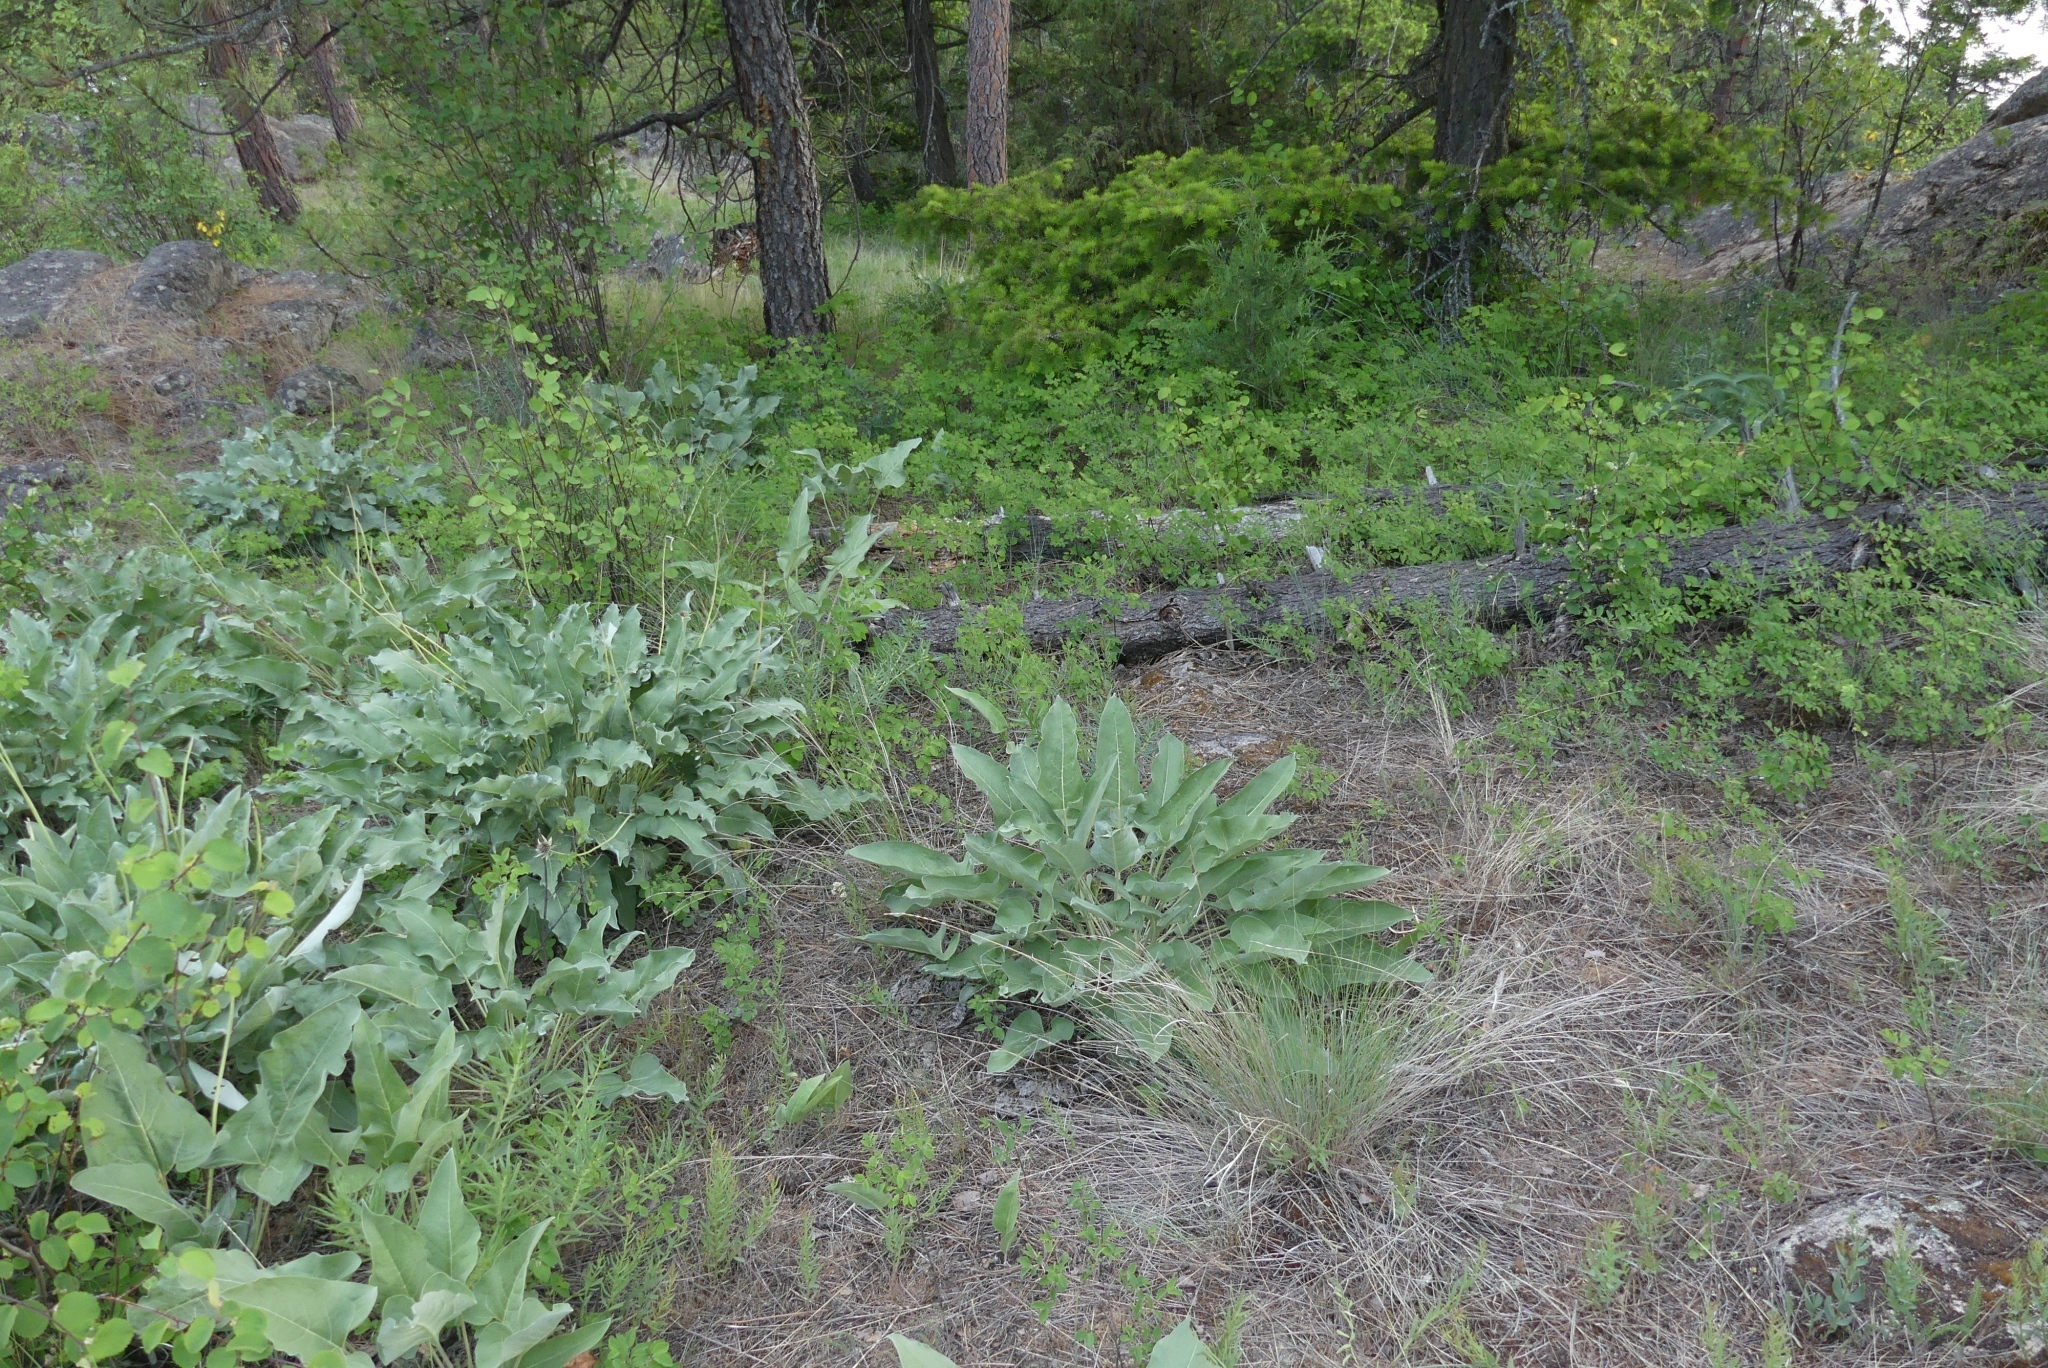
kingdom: Plantae
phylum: Tracheophyta
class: Magnoliopsida
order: Asterales
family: Asteraceae
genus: Wyethia
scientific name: Wyethia sagittata
